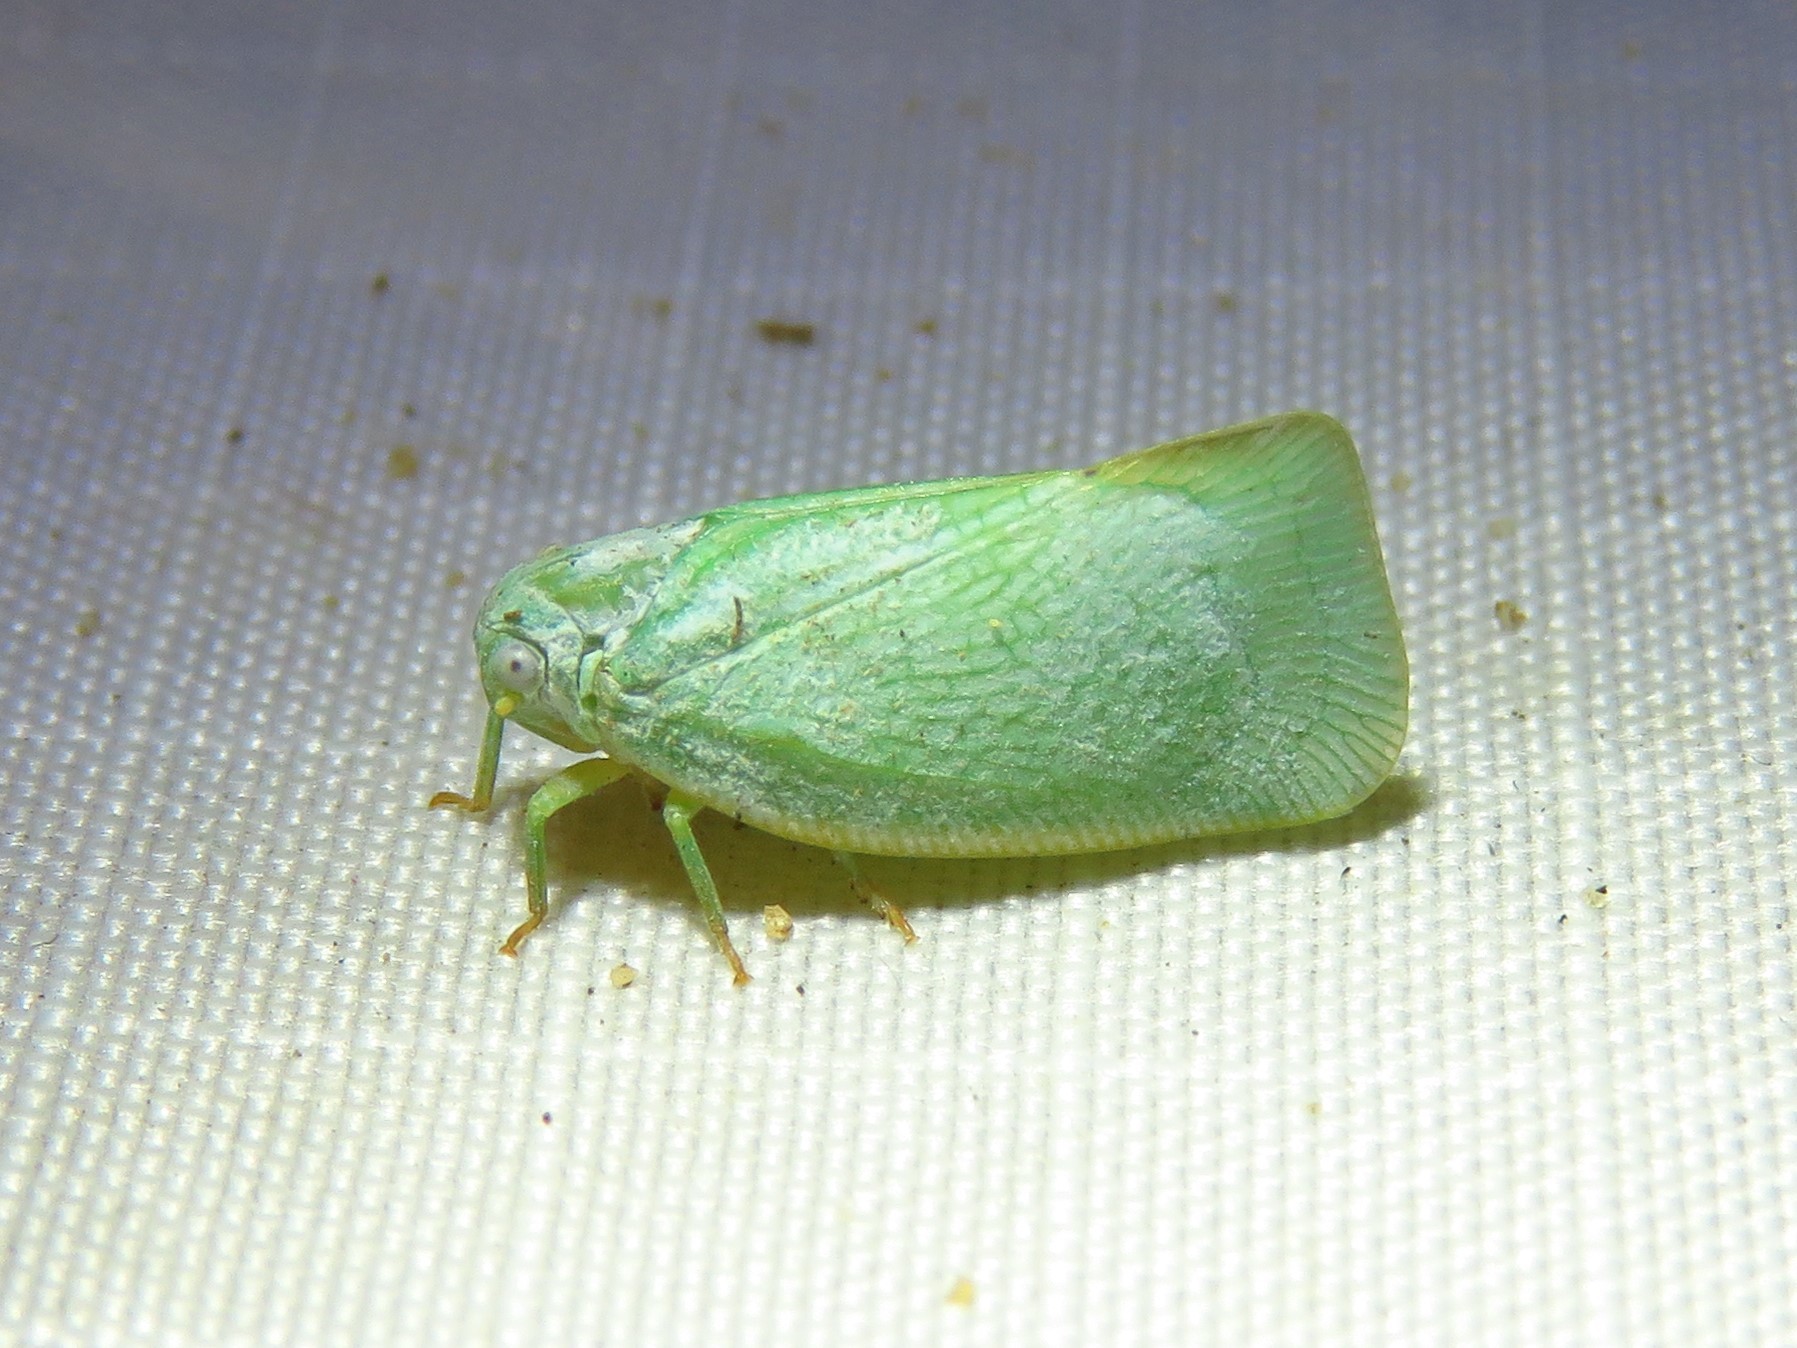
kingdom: Animalia
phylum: Arthropoda
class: Insecta
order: Hemiptera
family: Flatidae
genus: Flatormenis
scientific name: Flatormenis proxima
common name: Northern flatid planthopper
